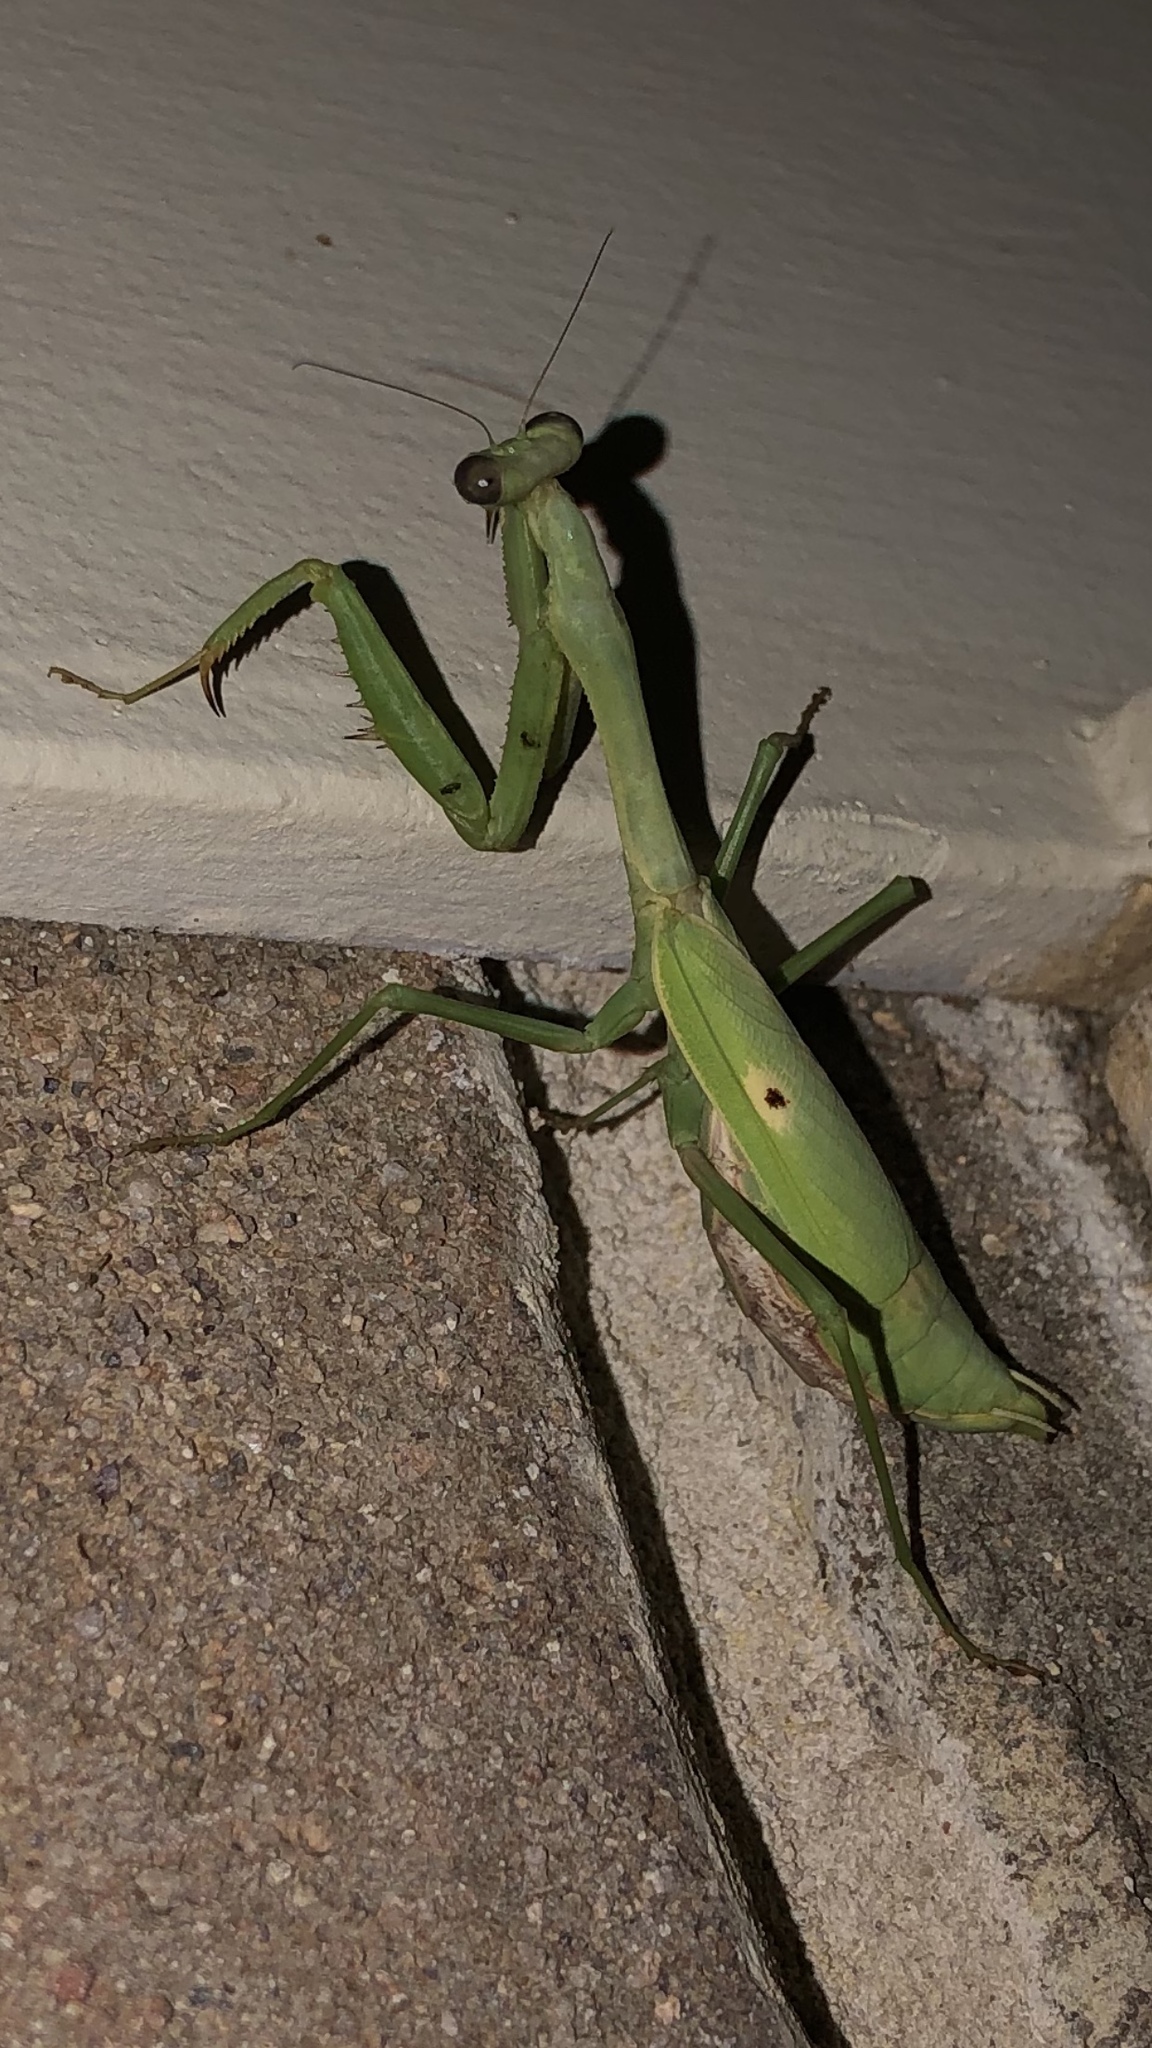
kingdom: Animalia
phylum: Arthropoda
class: Insecta
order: Mantodea
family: Mantidae
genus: Stagmomantis
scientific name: Stagmomantis carolina
